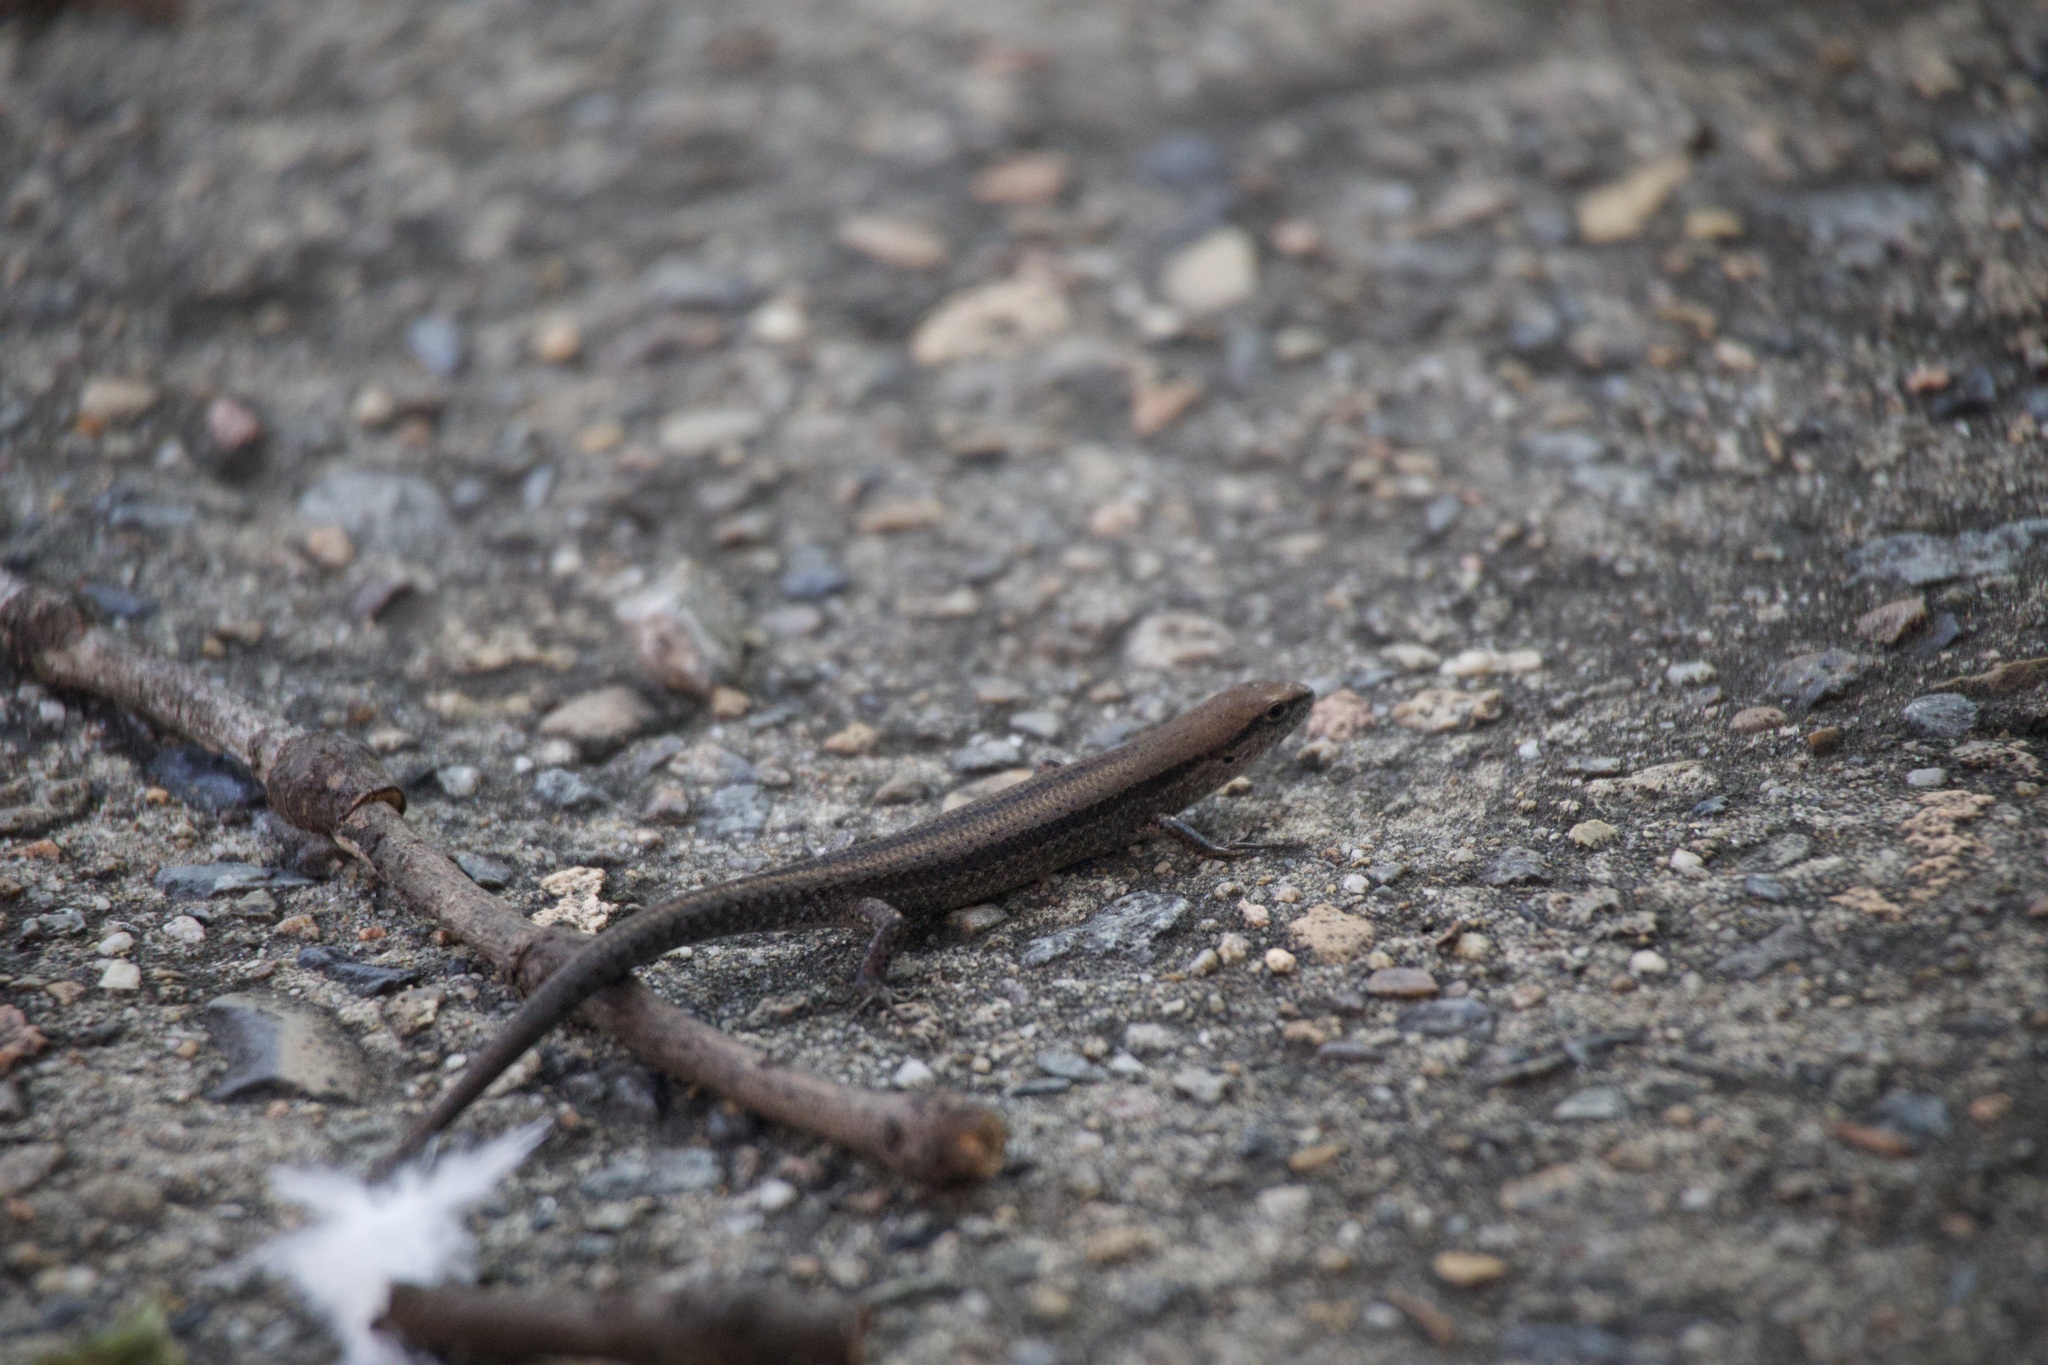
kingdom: Animalia
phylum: Chordata
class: Squamata
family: Scincidae
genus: Lampropholis
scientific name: Lampropholis guichenoti
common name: Garden skink
